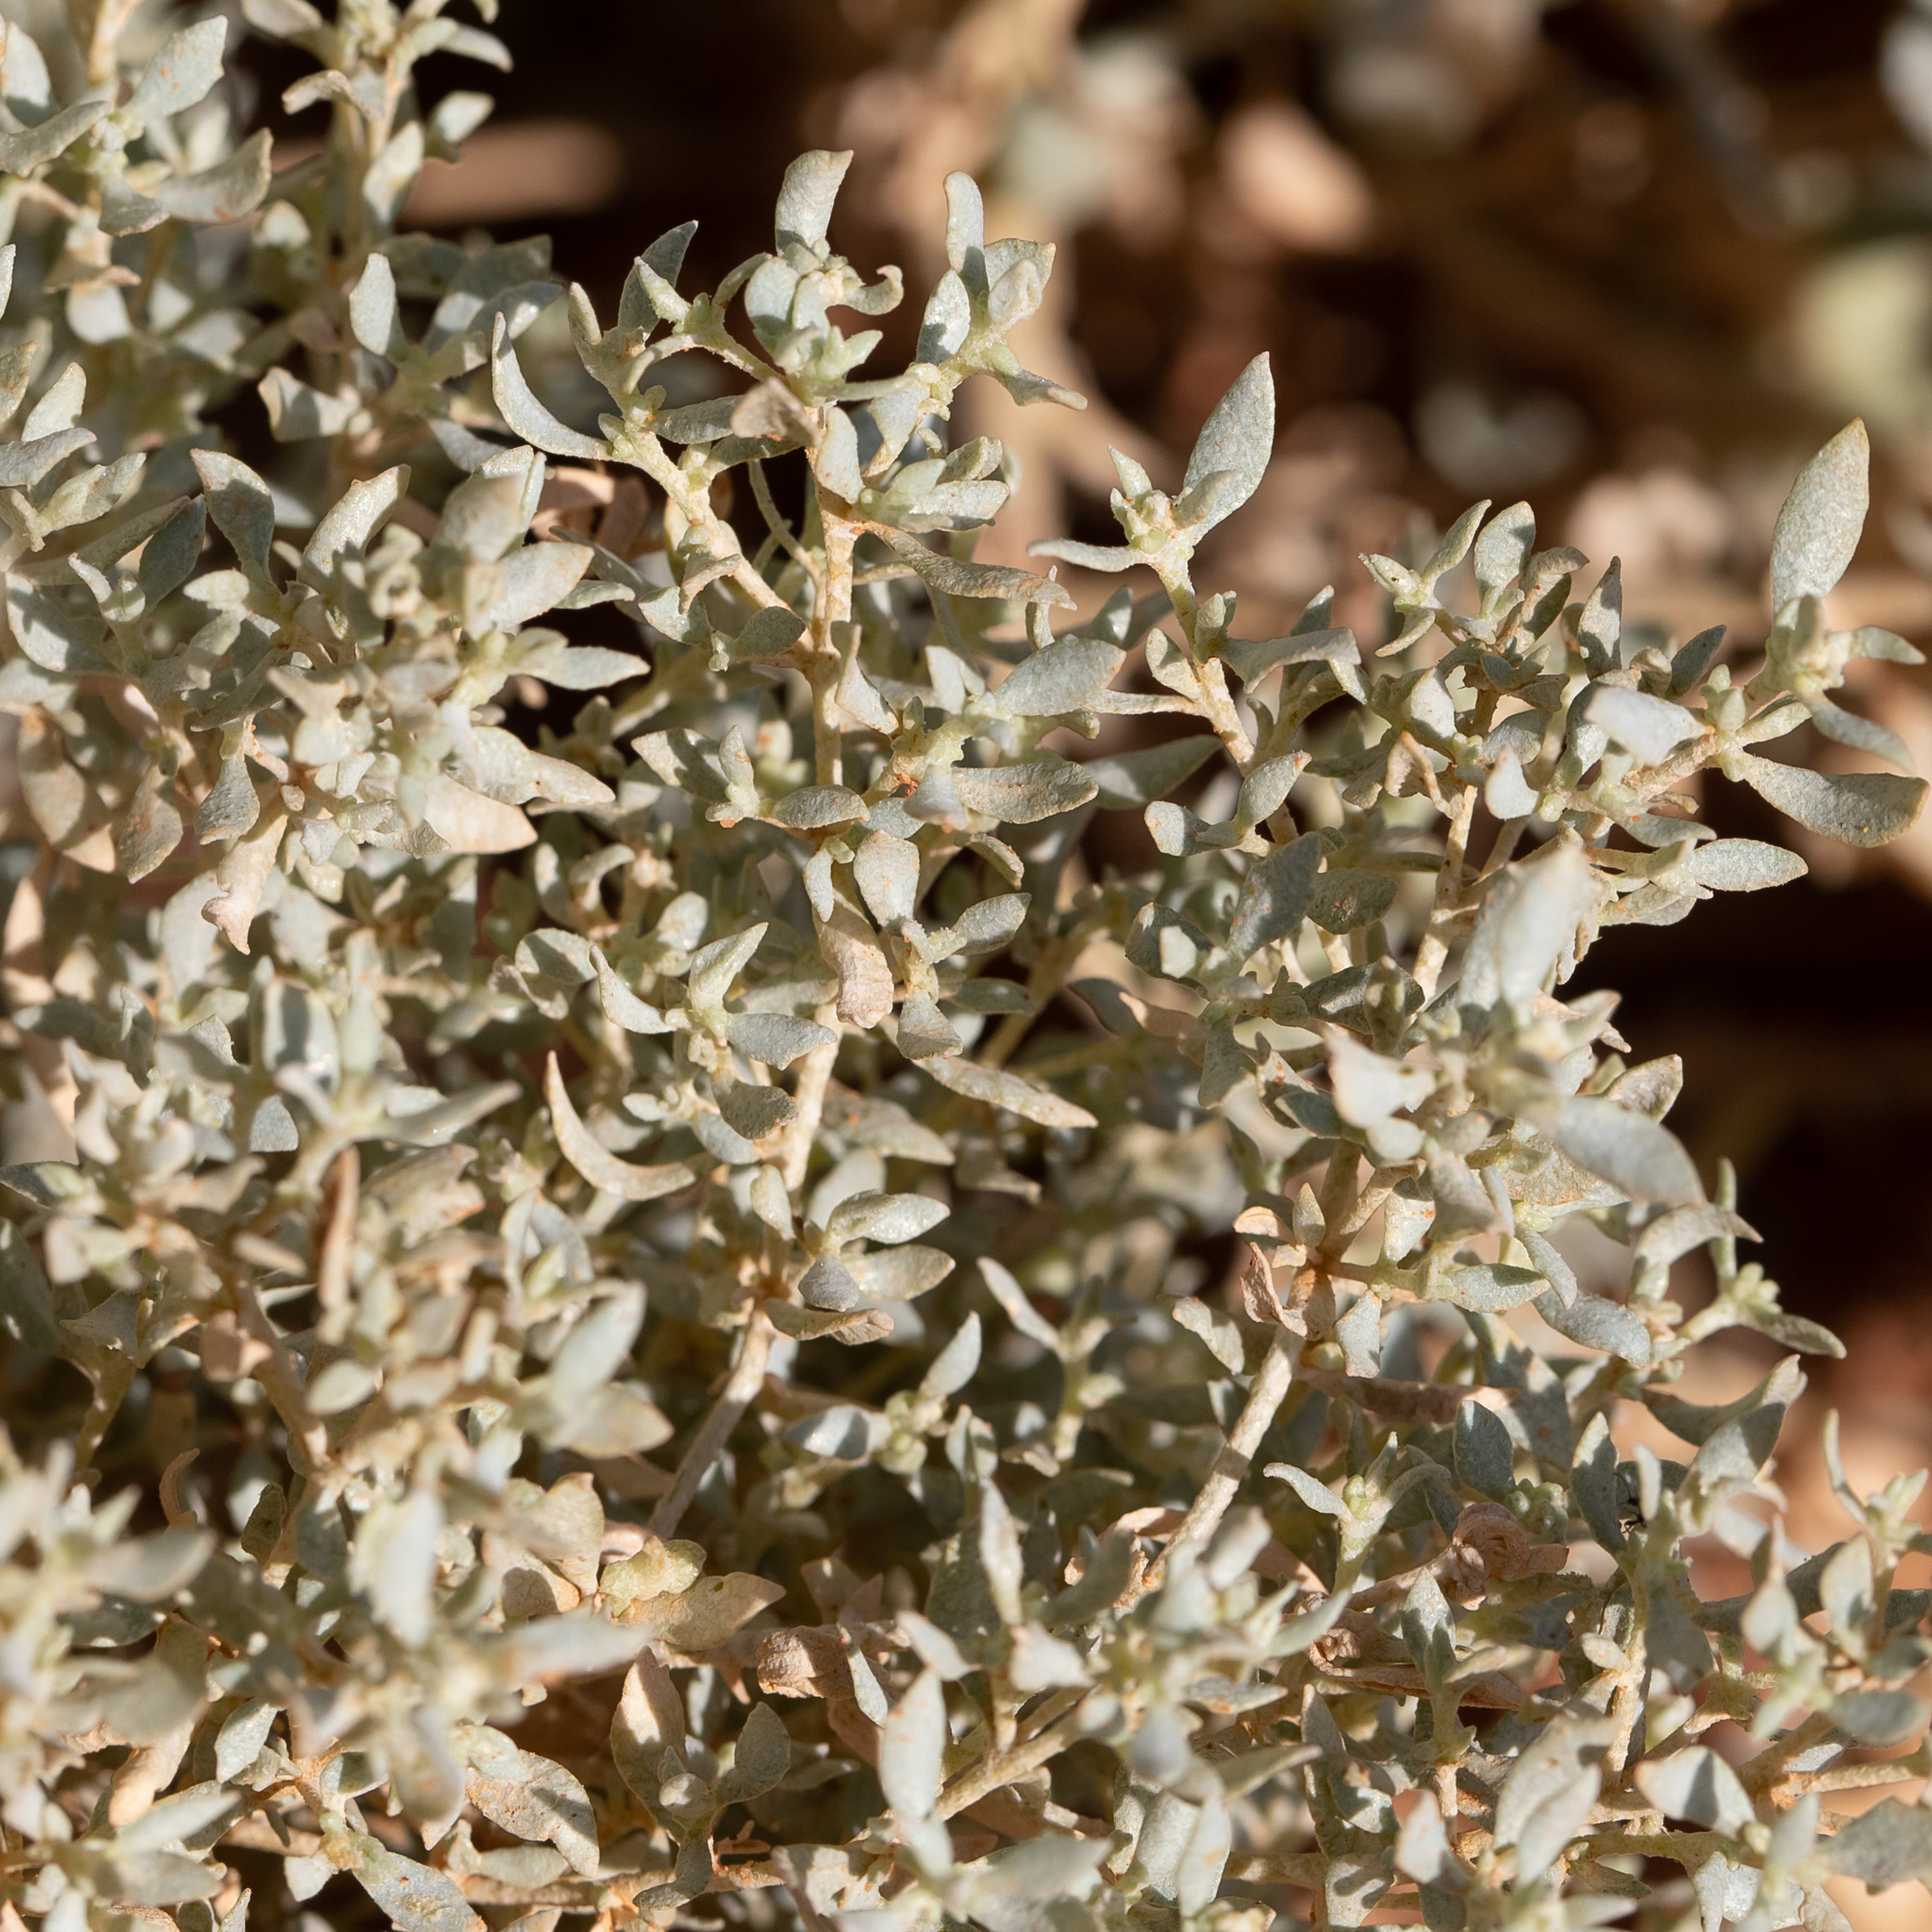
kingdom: Plantae
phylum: Tracheophyta
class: Magnoliopsida
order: Caryophyllales
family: Amaranthaceae
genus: Atriplex
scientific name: Atriplex lindleyi
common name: Lindley's saltbush
